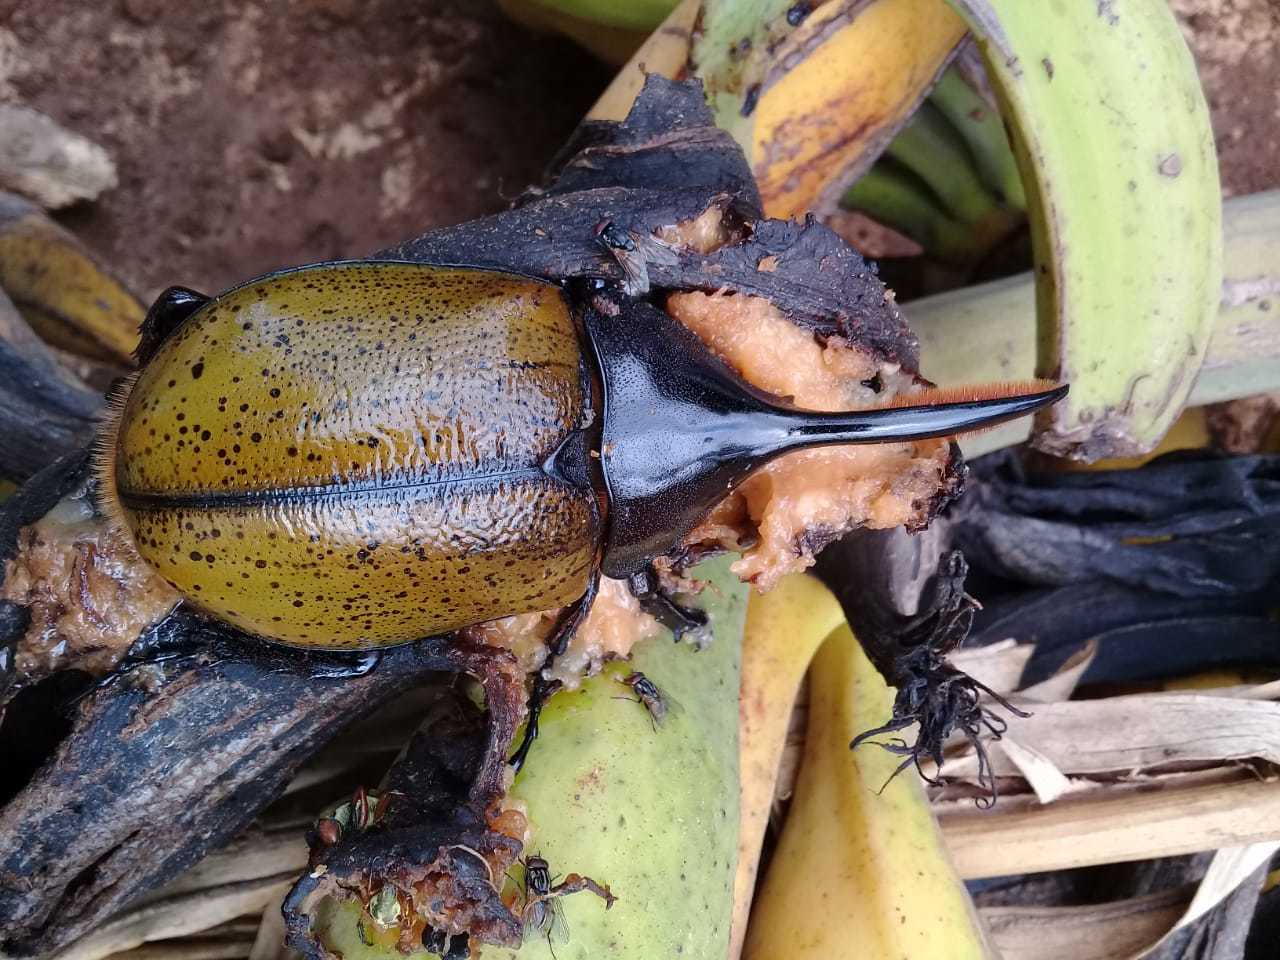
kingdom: Animalia
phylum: Arthropoda
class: Insecta
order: Coleoptera
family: Scarabaeidae
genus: Dynastes
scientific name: Dynastes
